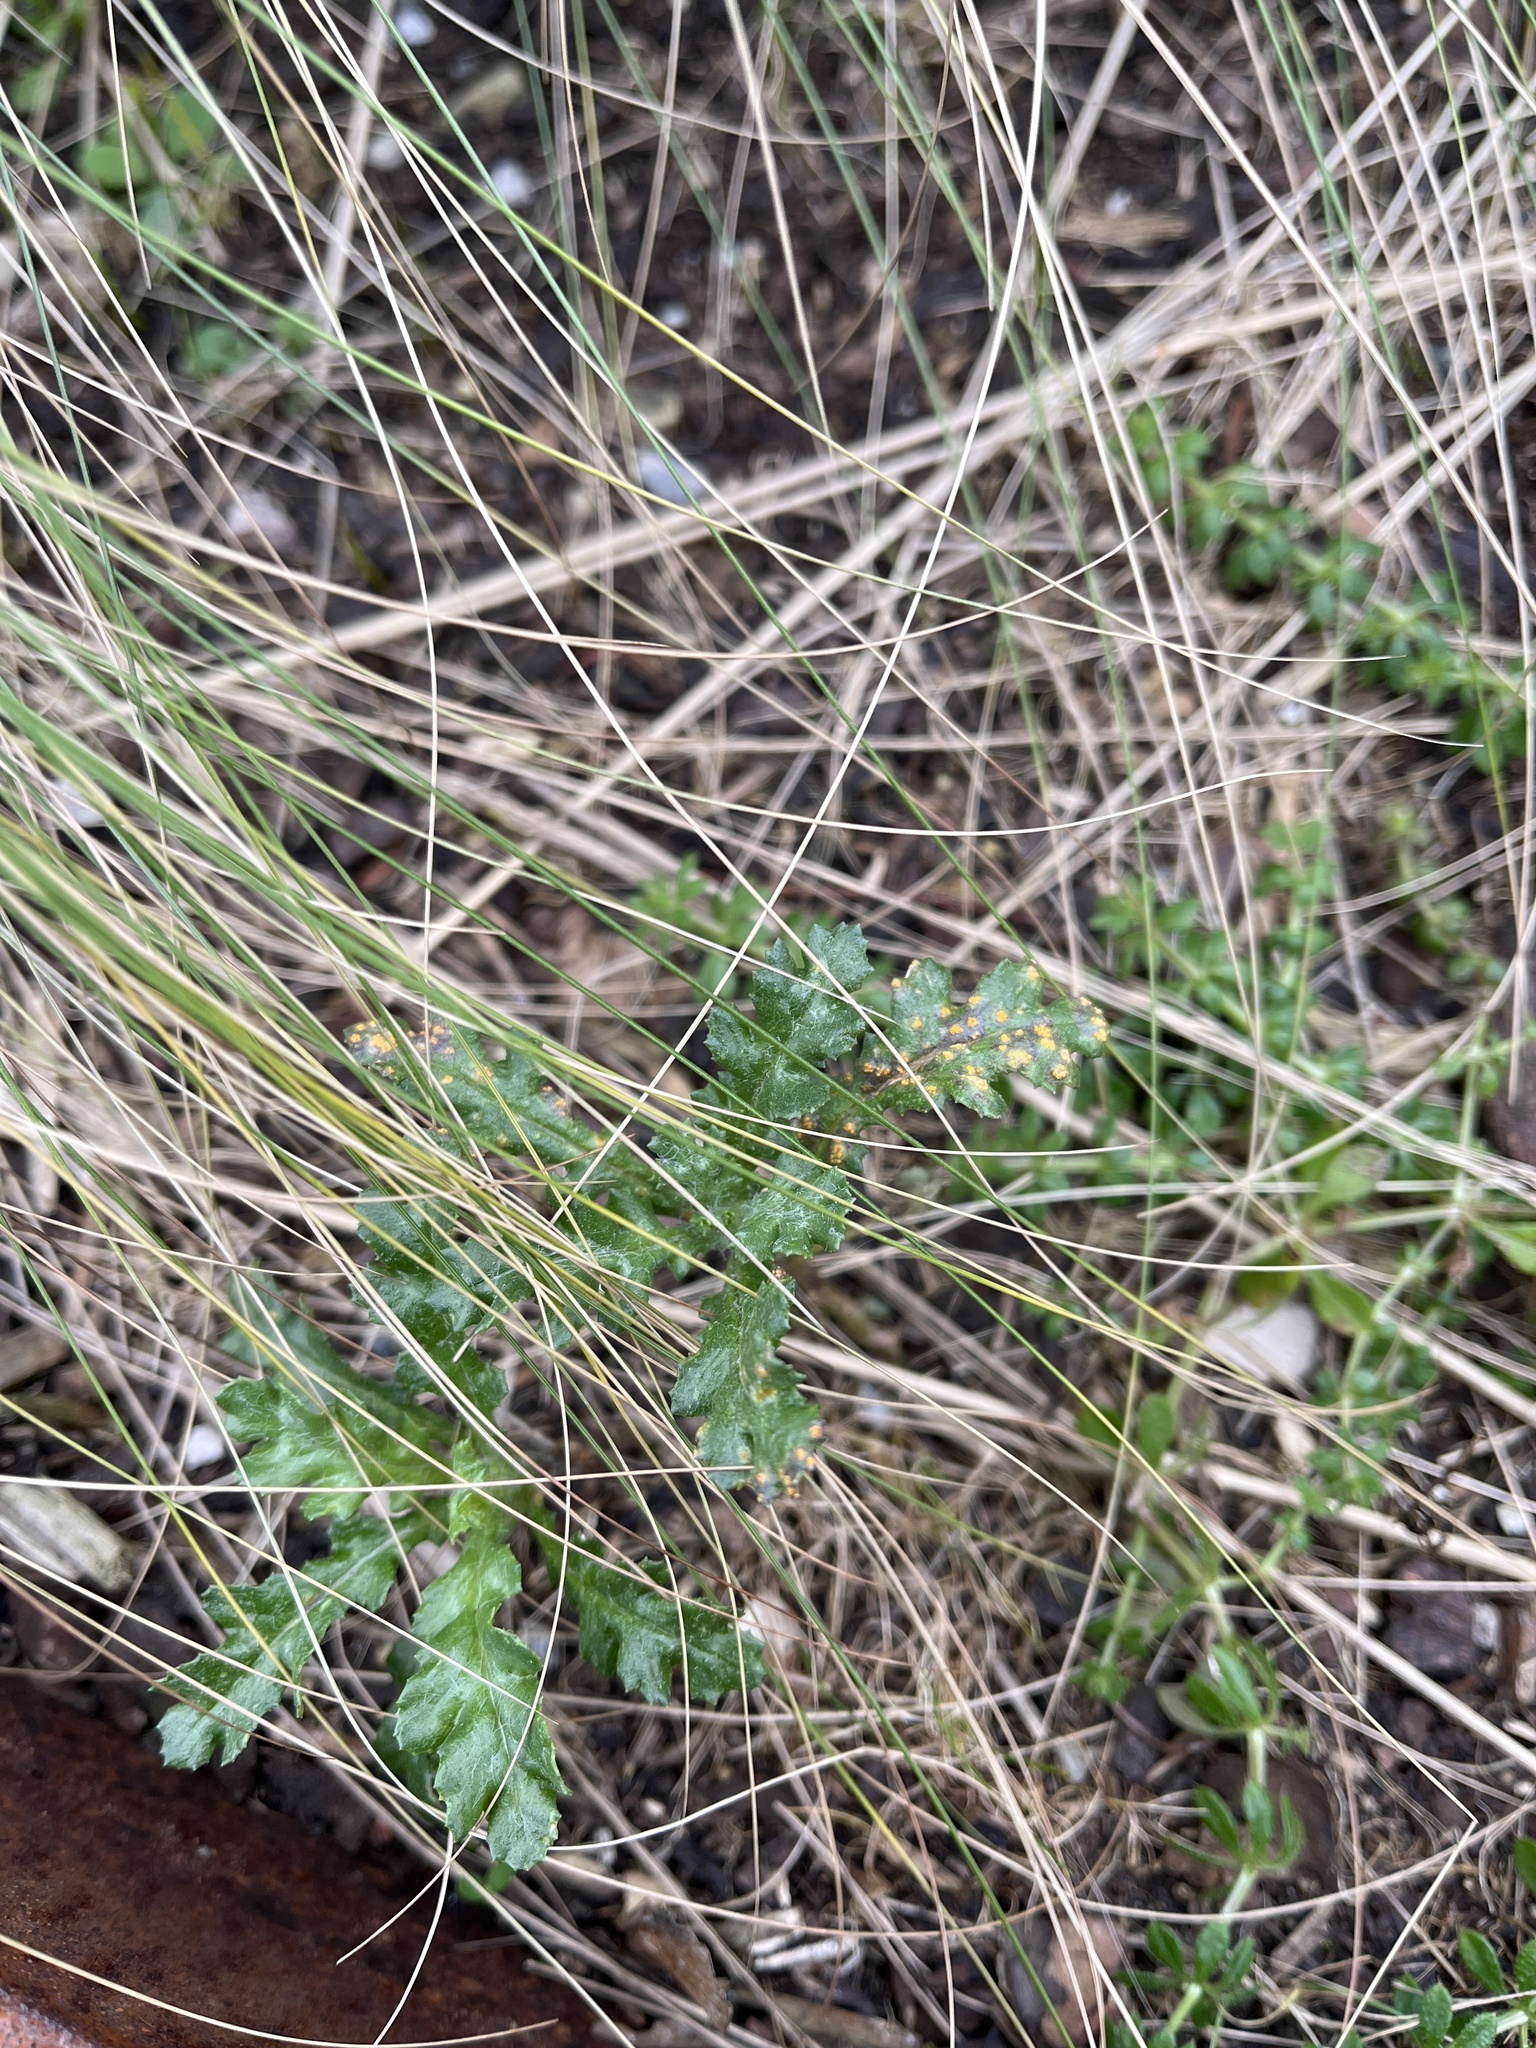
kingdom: Fungi
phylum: Basidiomycota
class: Pucciniomycetes
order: Pucciniales
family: Pucciniaceae
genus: Puccinia
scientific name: Puccinia lagenophorae
